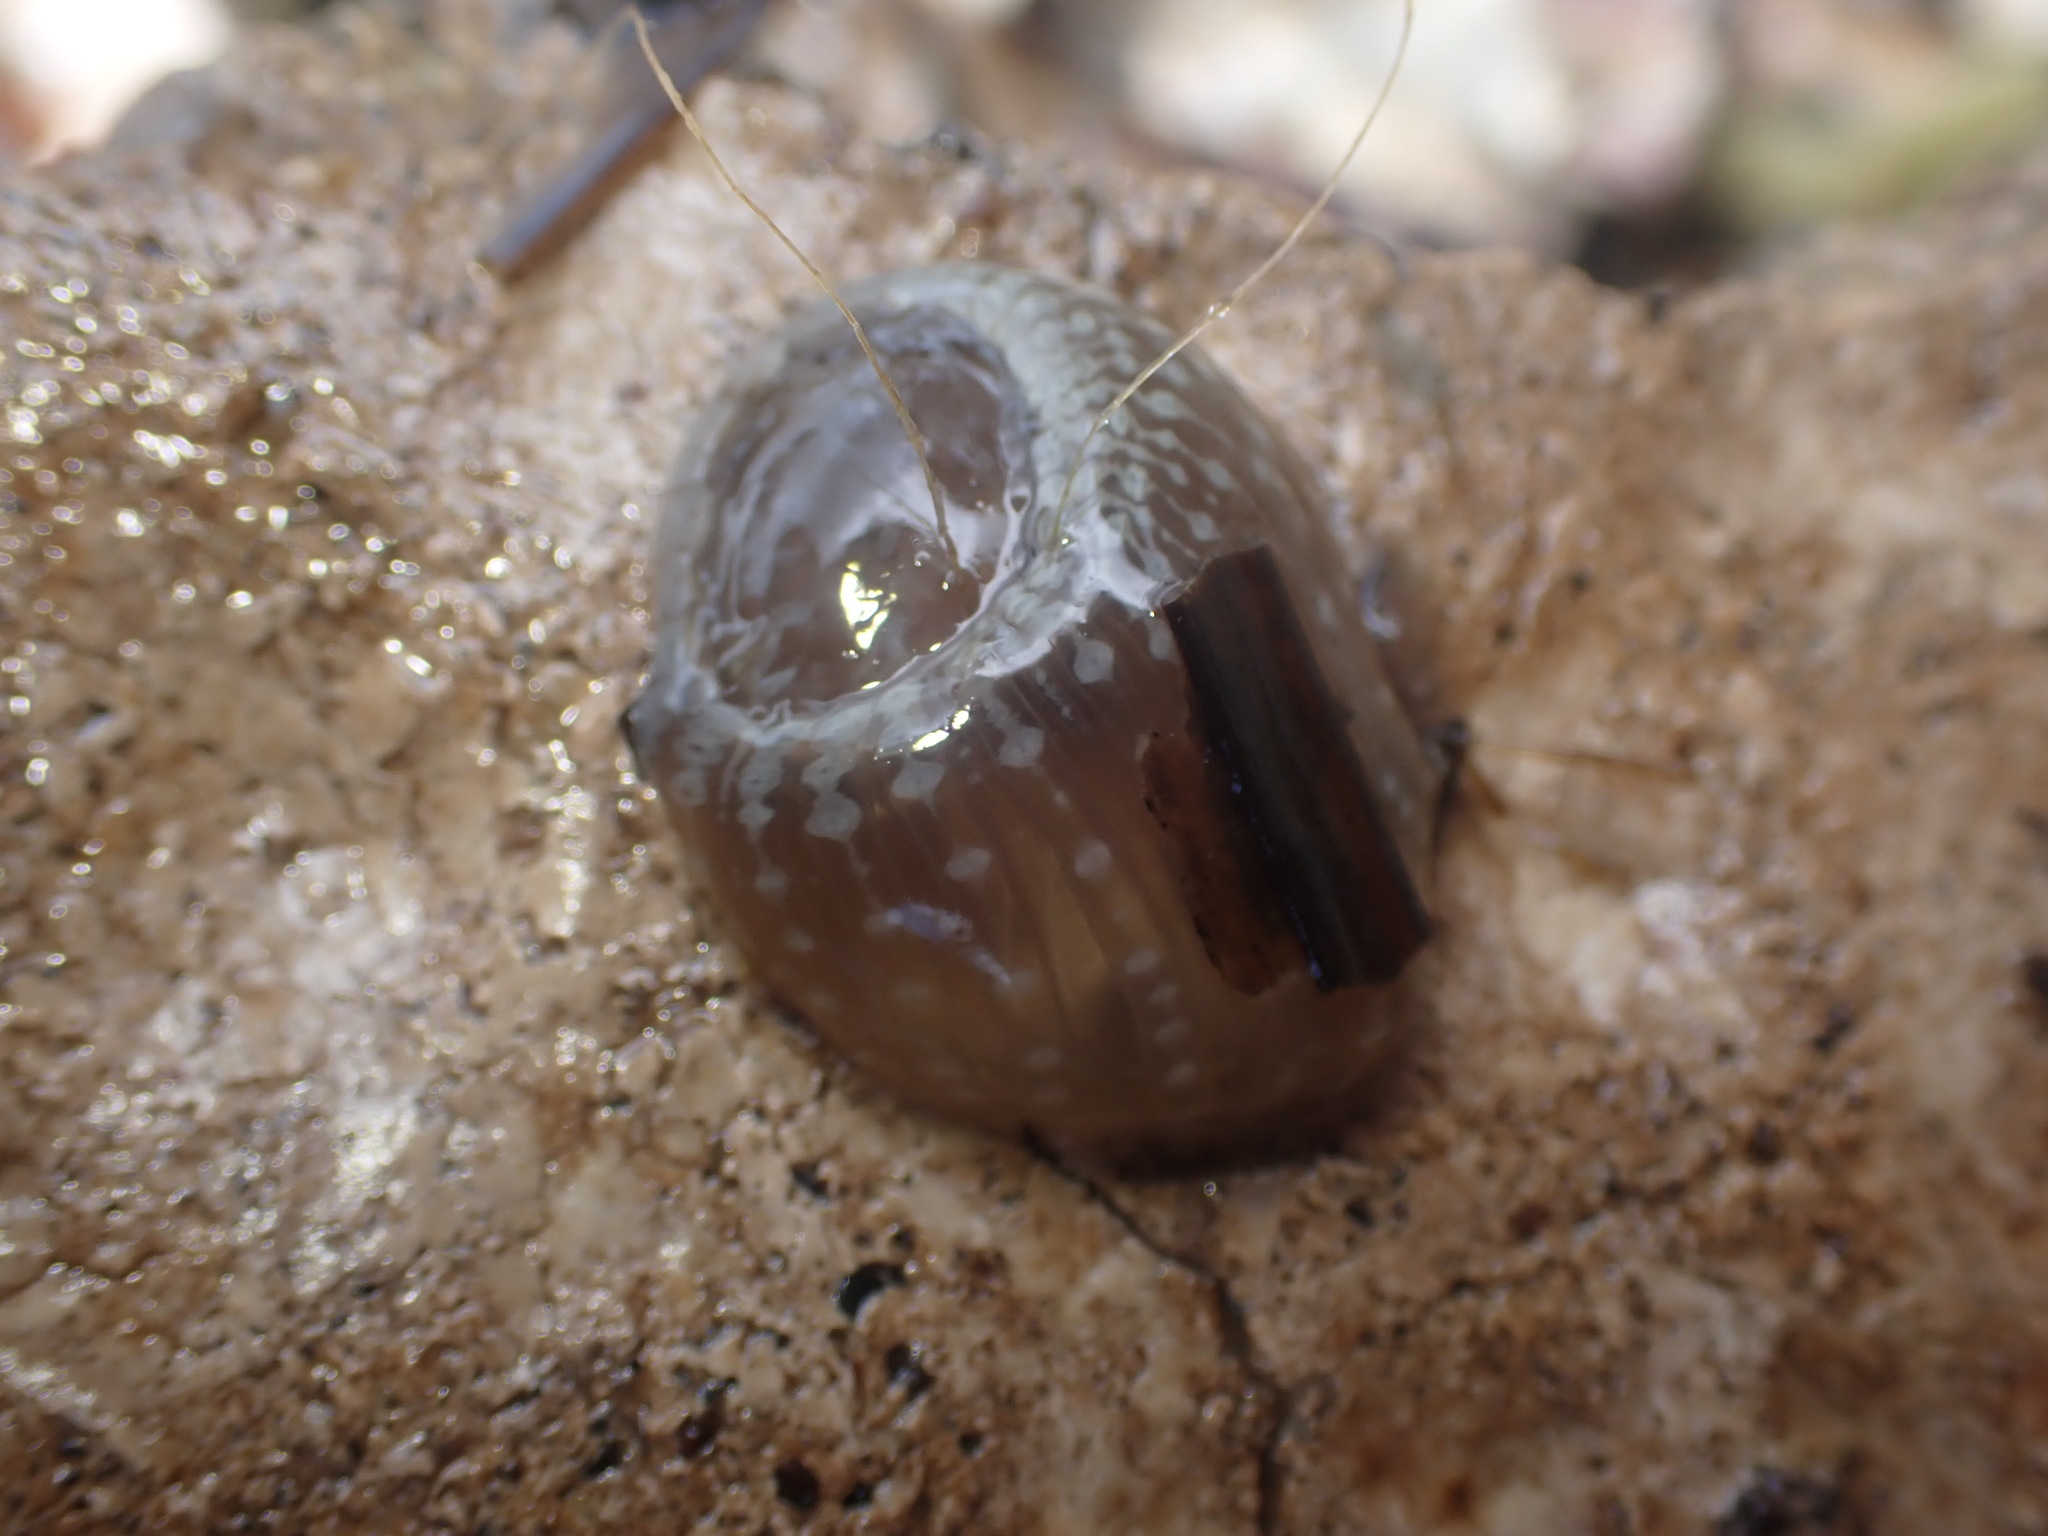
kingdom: Animalia
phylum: Cnidaria
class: Anthozoa
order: Actiniaria
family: Actiniidae
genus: Anthopleura
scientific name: Anthopleura hermaphroditica
